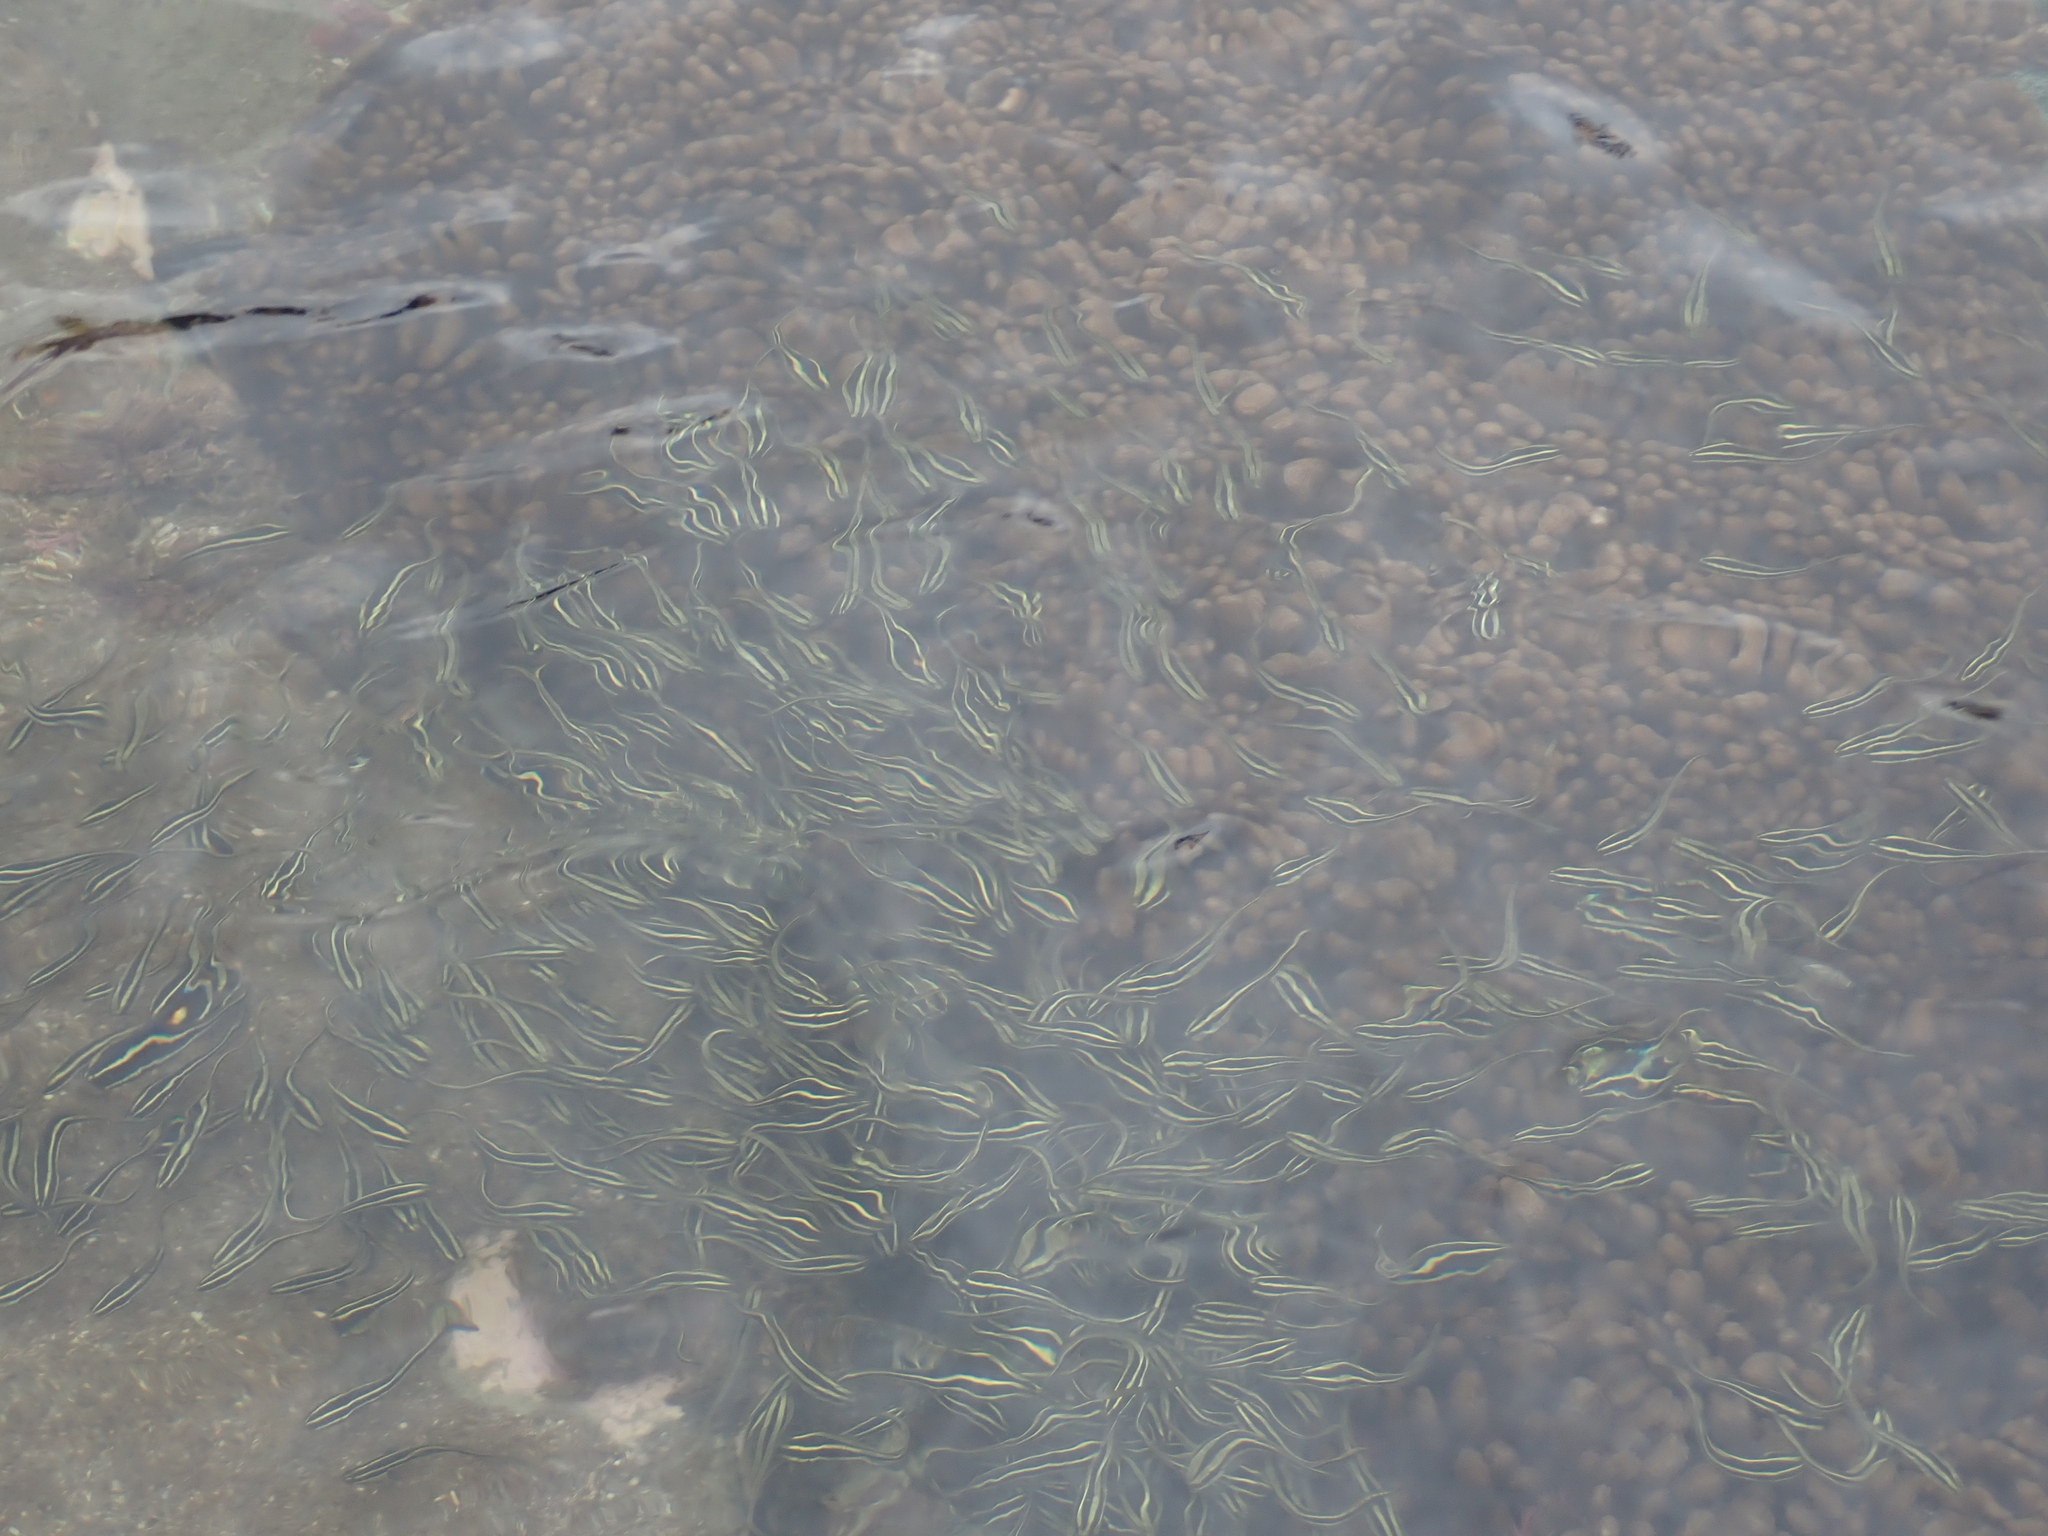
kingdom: Animalia
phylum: Chordata
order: Siluriformes
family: Plotosidae
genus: Plotosus
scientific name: Plotosus lineatus
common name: Striped eel catfish
